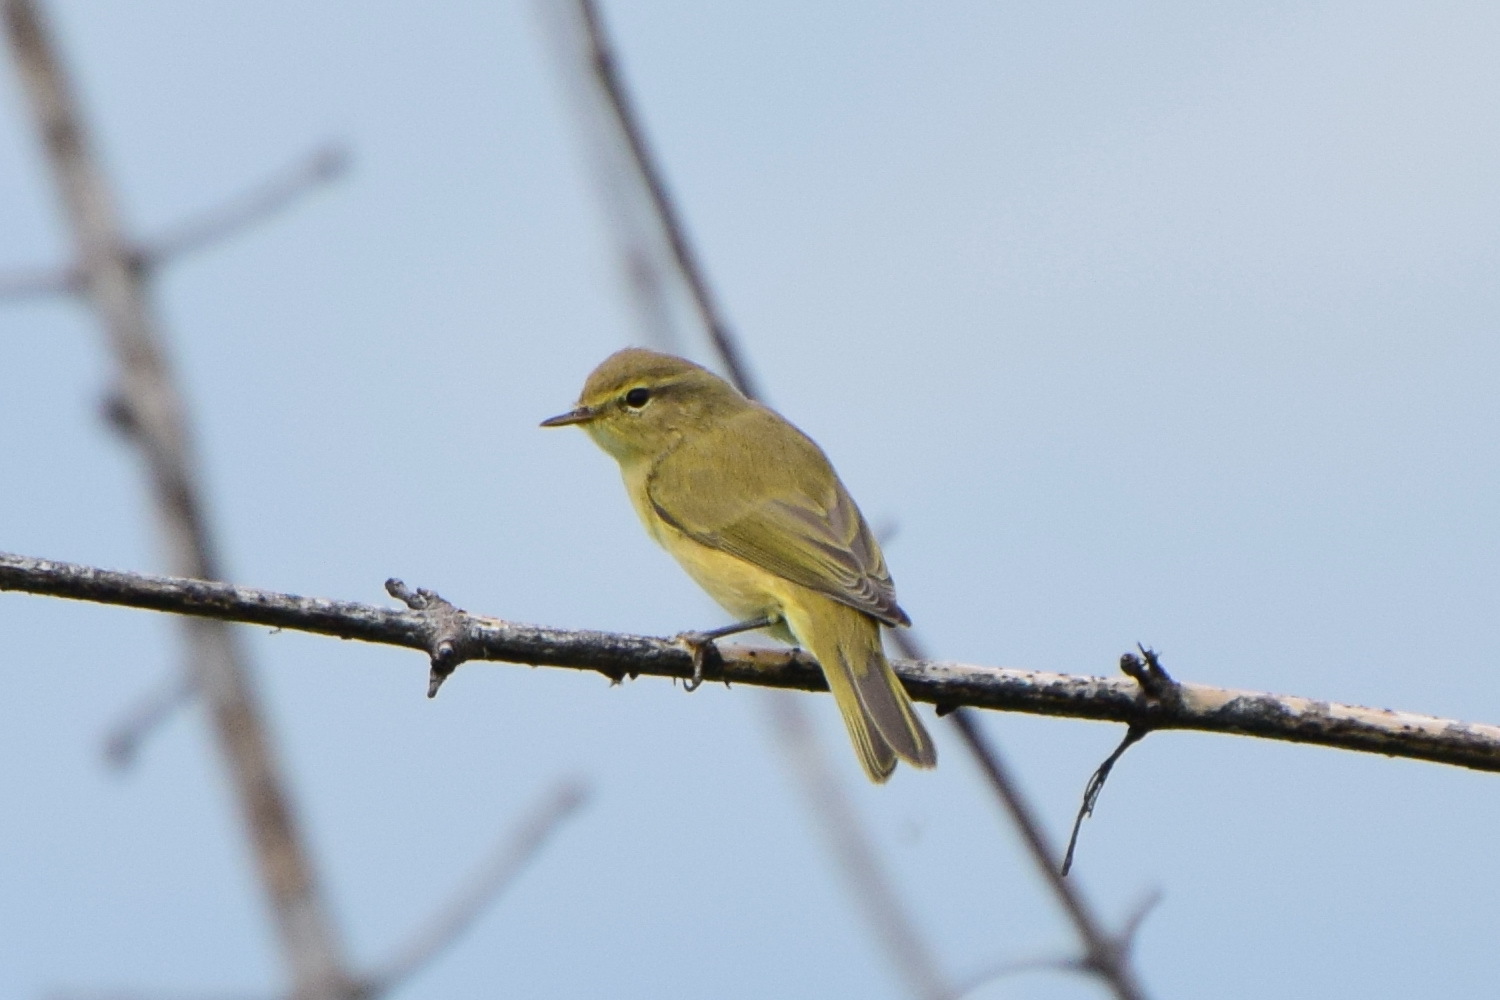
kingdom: Animalia
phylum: Chordata
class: Aves
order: Passeriformes
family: Phylloscopidae
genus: Phylloscopus
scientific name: Phylloscopus collybita
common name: Common chiffchaff
